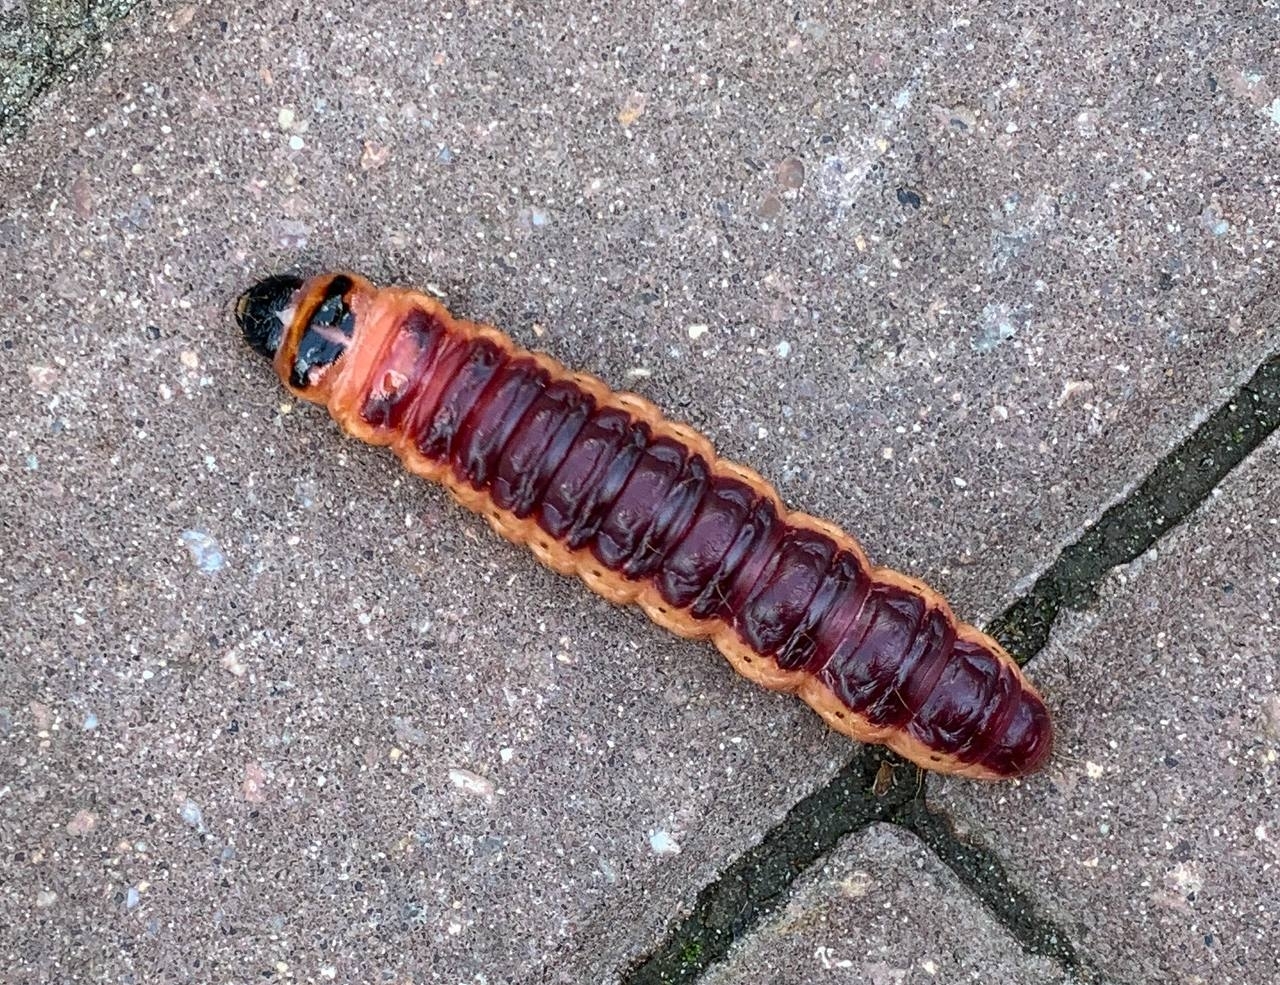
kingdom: Animalia
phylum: Arthropoda
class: Insecta
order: Lepidoptera
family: Cossidae
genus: Cossus
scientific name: Cossus cossus
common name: Goat moth
